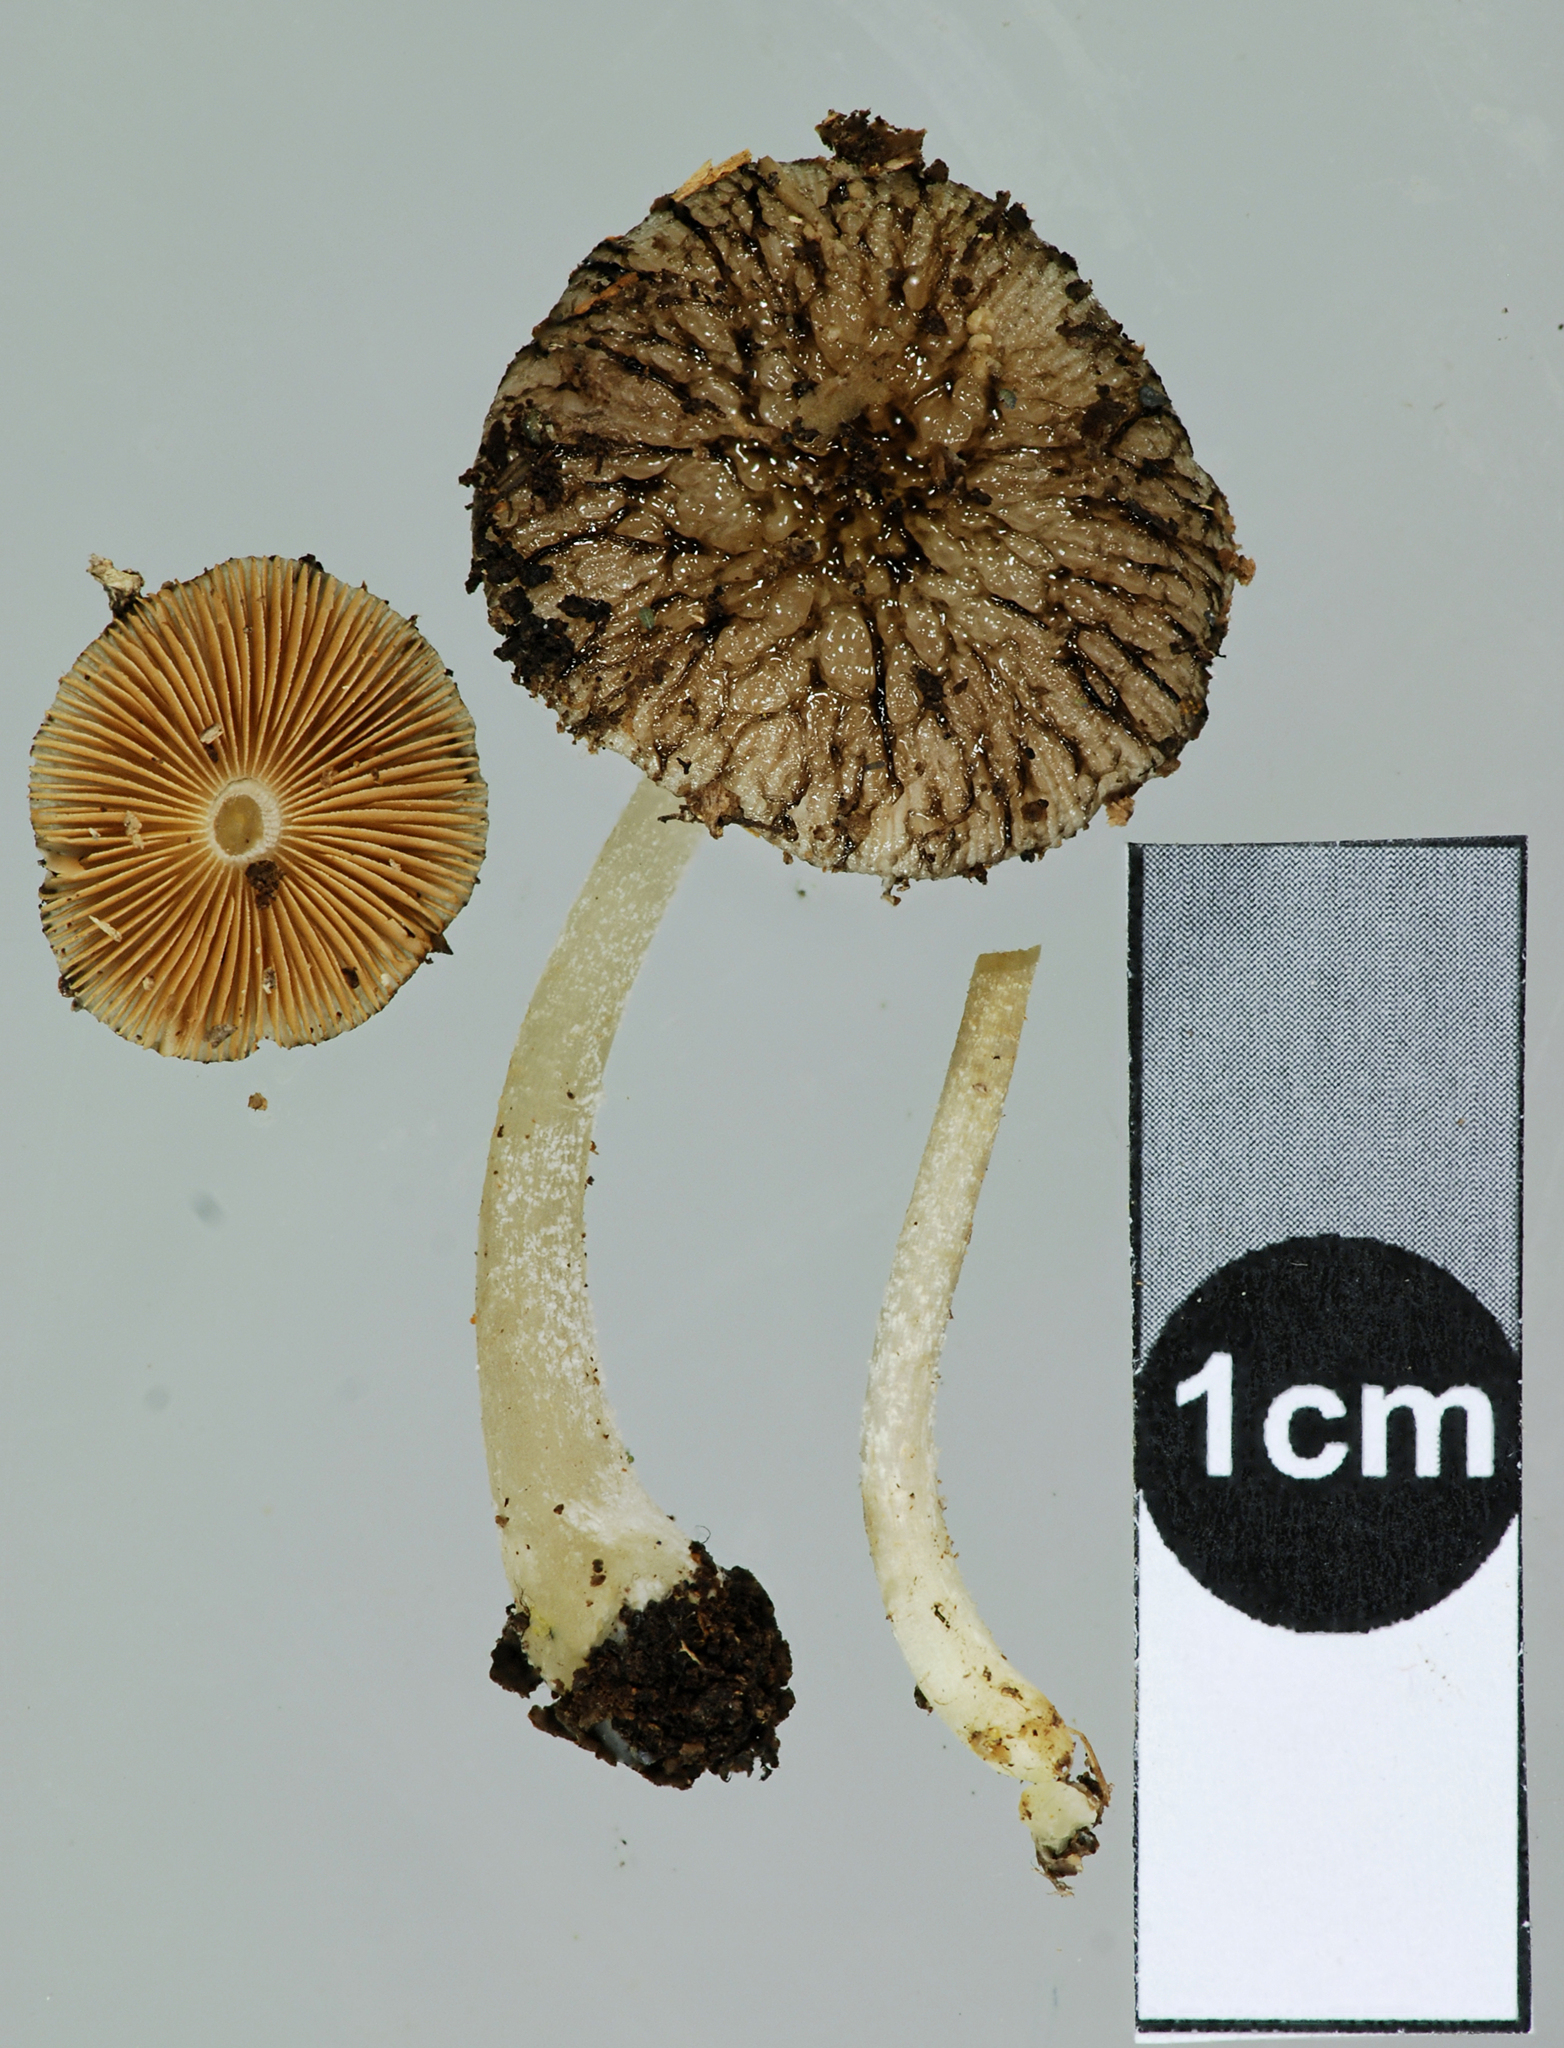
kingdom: Fungi
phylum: Basidiomycota
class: Agaricomycetes
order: Agaricales
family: Bolbitiaceae
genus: Bolbitius
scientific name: Bolbitius muscicola
